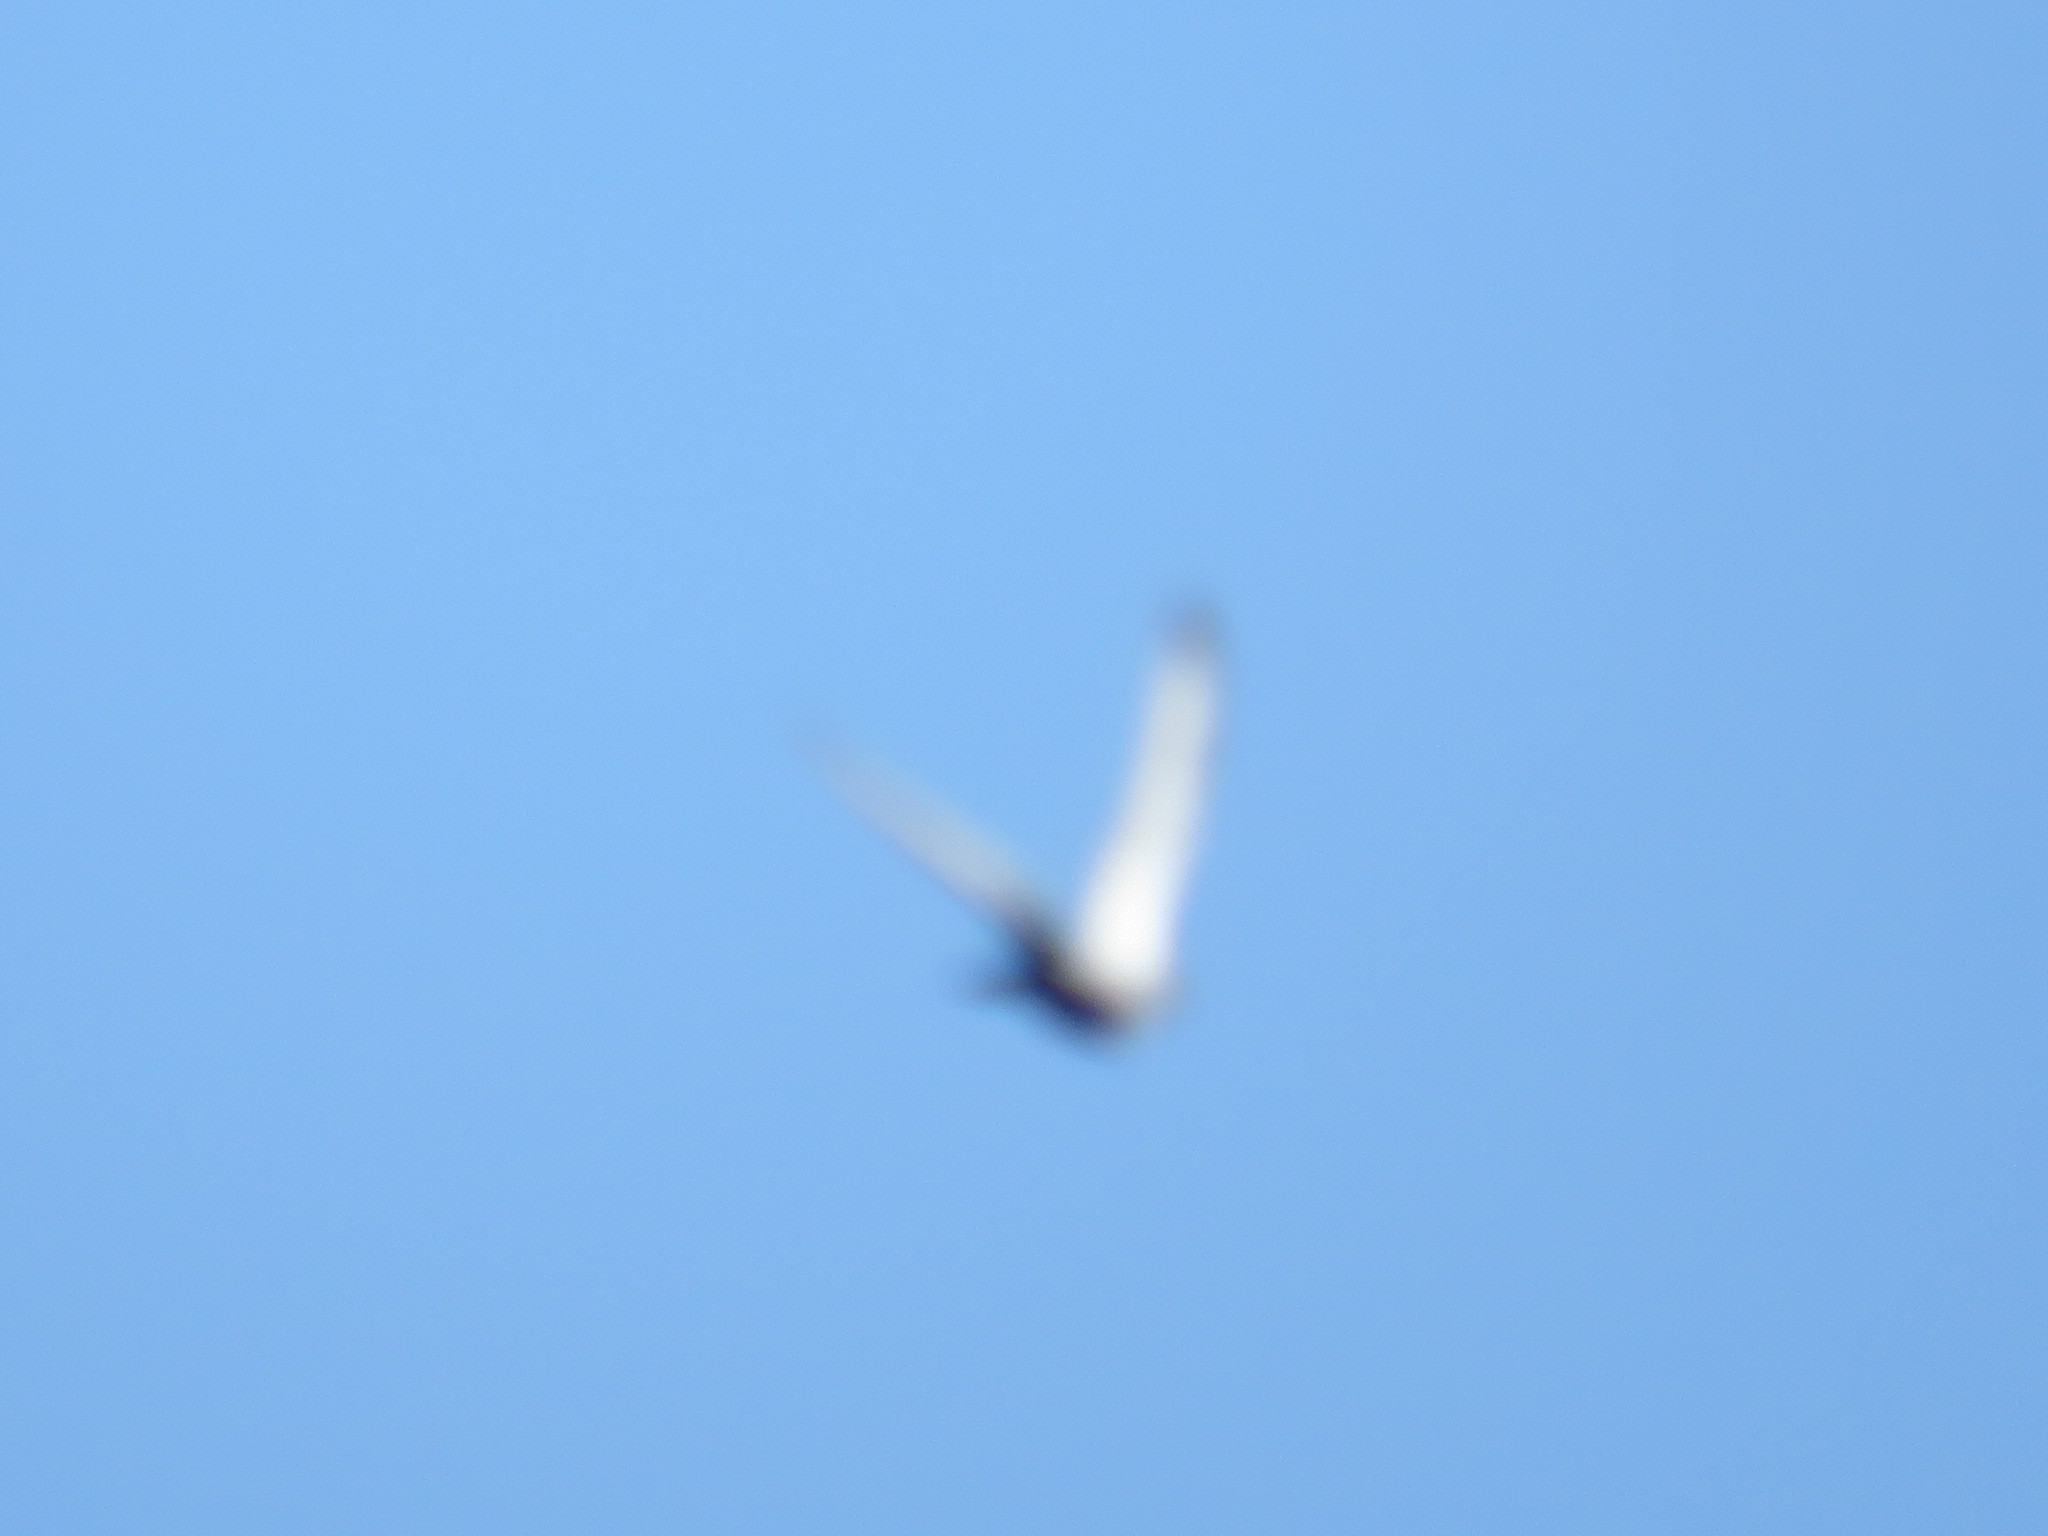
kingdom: Animalia
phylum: Chordata
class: Aves
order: Columbiformes
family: Columbidae
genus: Columba
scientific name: Columba livia
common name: Rock pigeon
